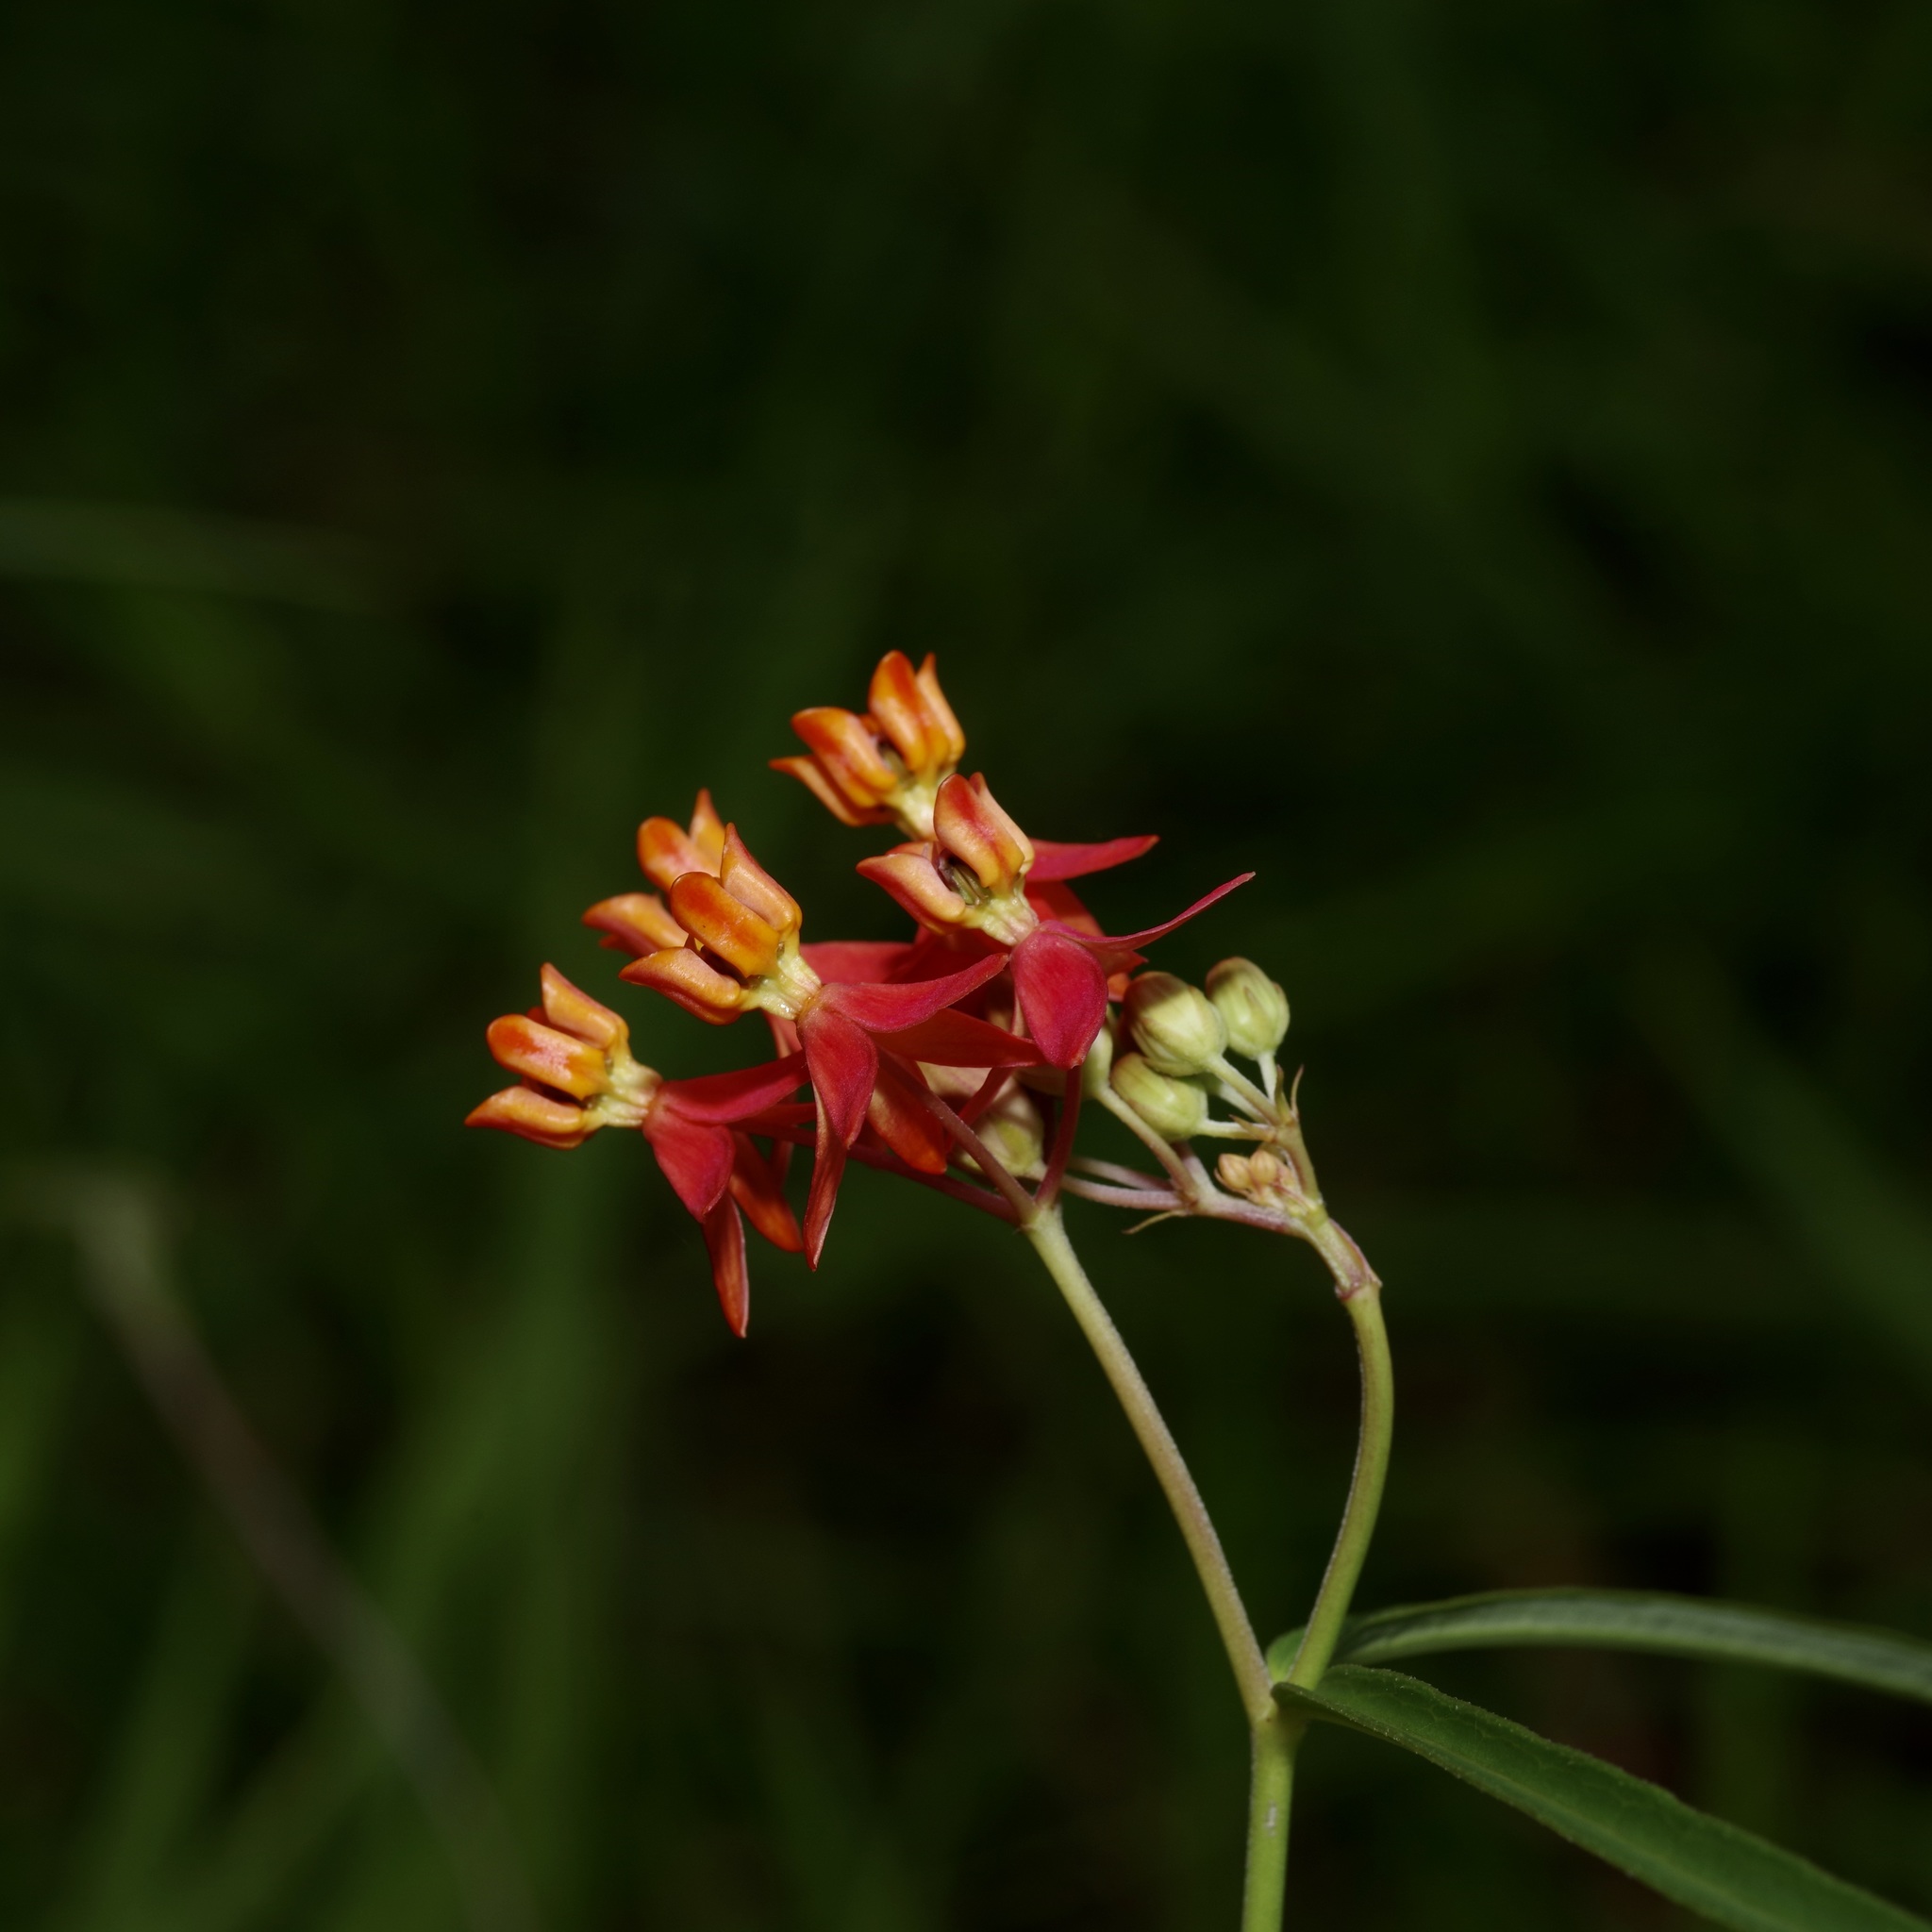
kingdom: Plantae
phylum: Tracheophyta
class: Magnoliopsida
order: Gentianales
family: Apocynaceae
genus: Asclepias
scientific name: Asclepias lanceolata
